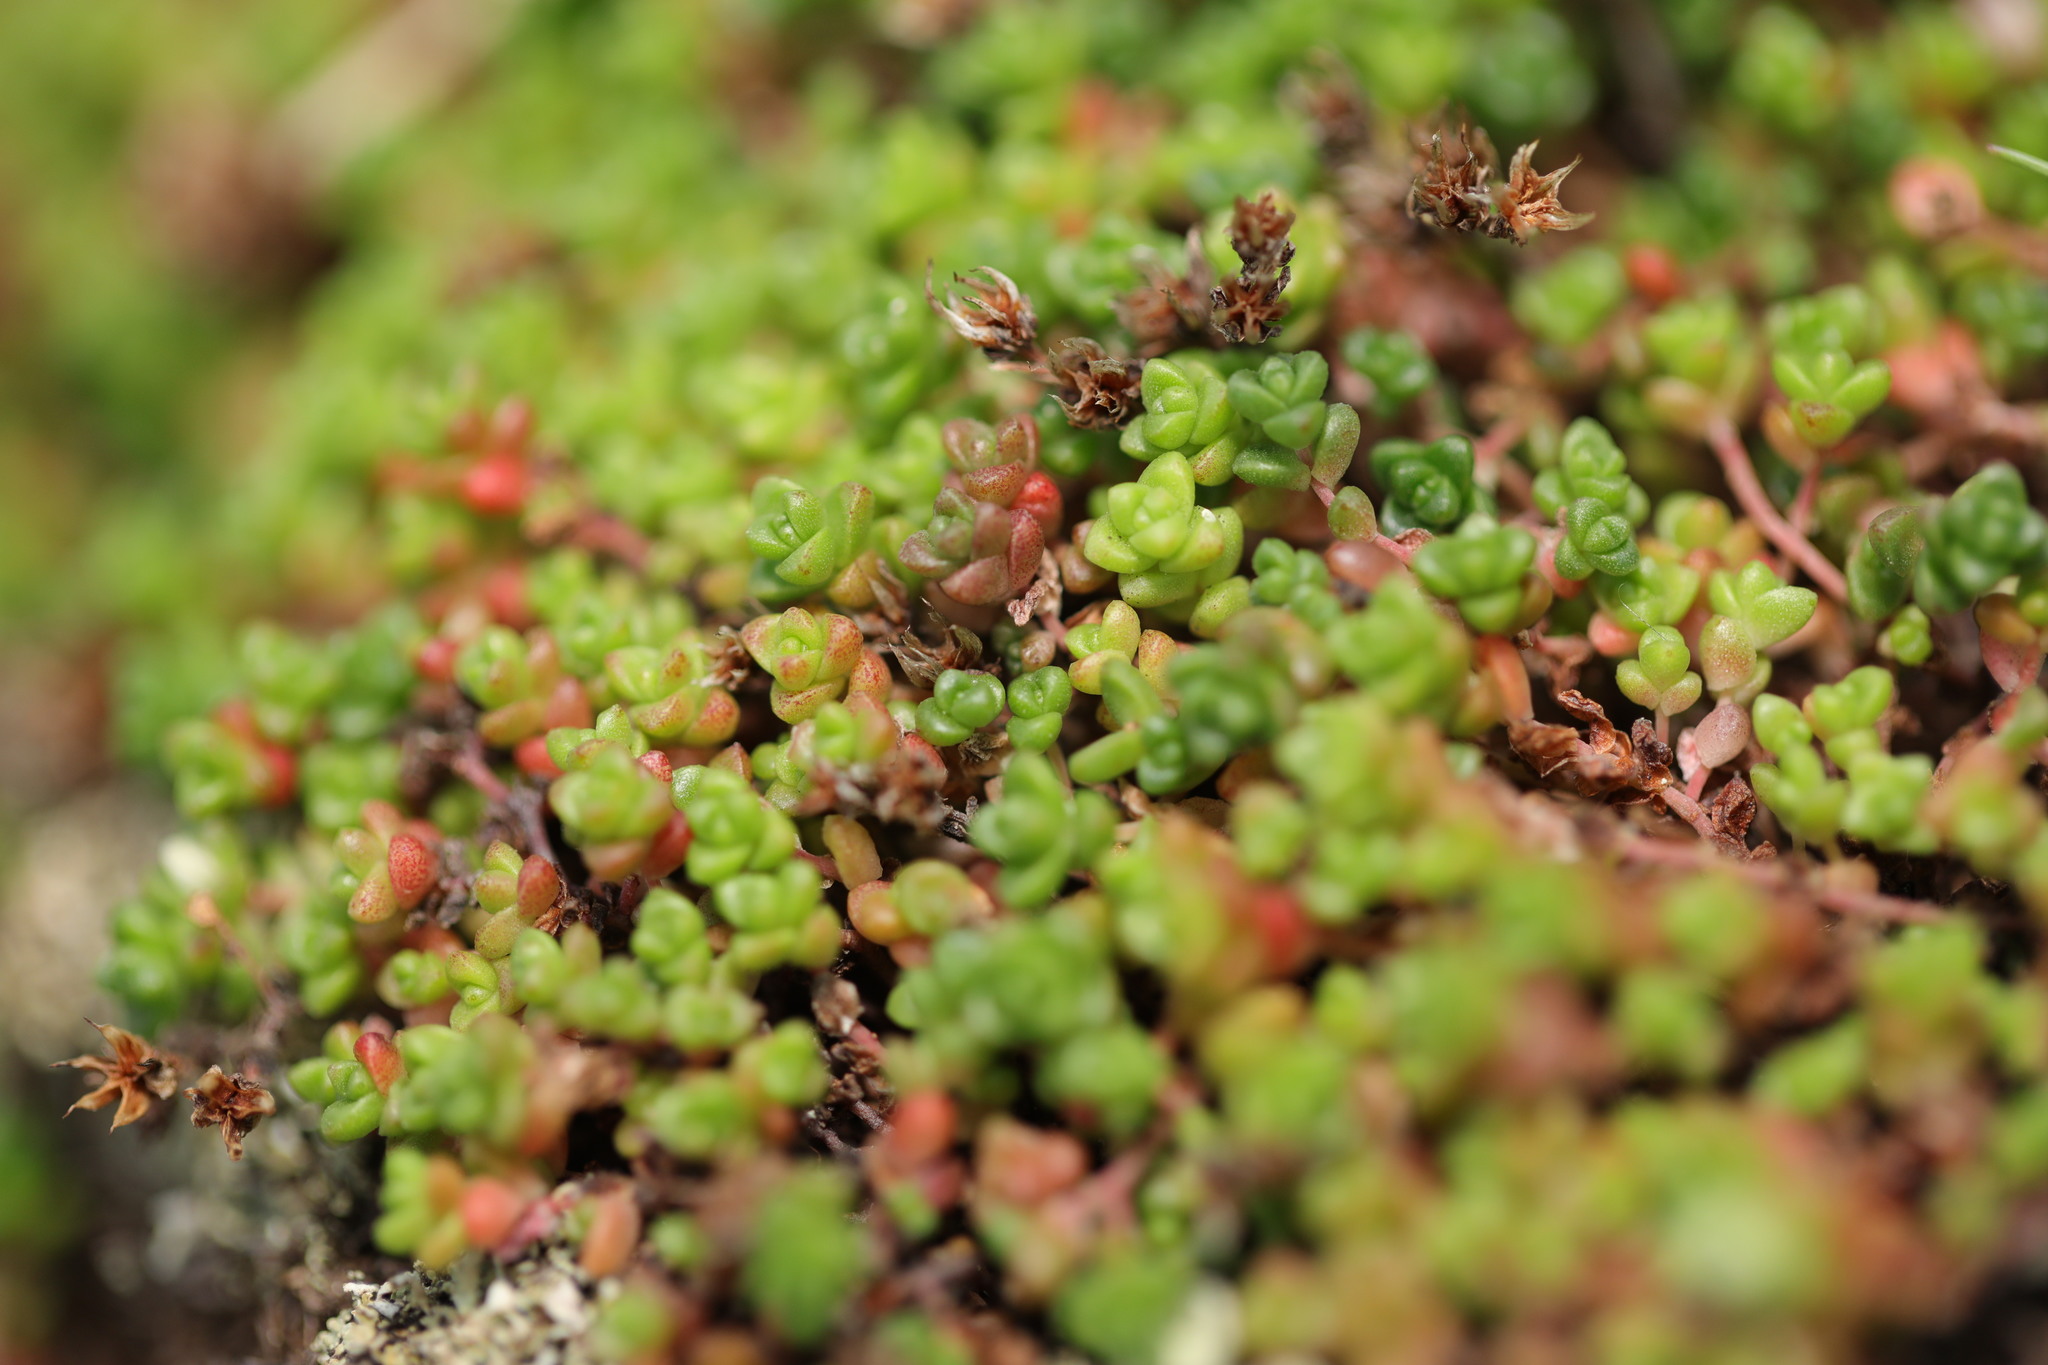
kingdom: Plantae
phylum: Tracheophyta
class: Magnoliopsida
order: Saxifragales
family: Crassulaceae
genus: Sedum
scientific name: Sedum anglicum
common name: English stonecrop
